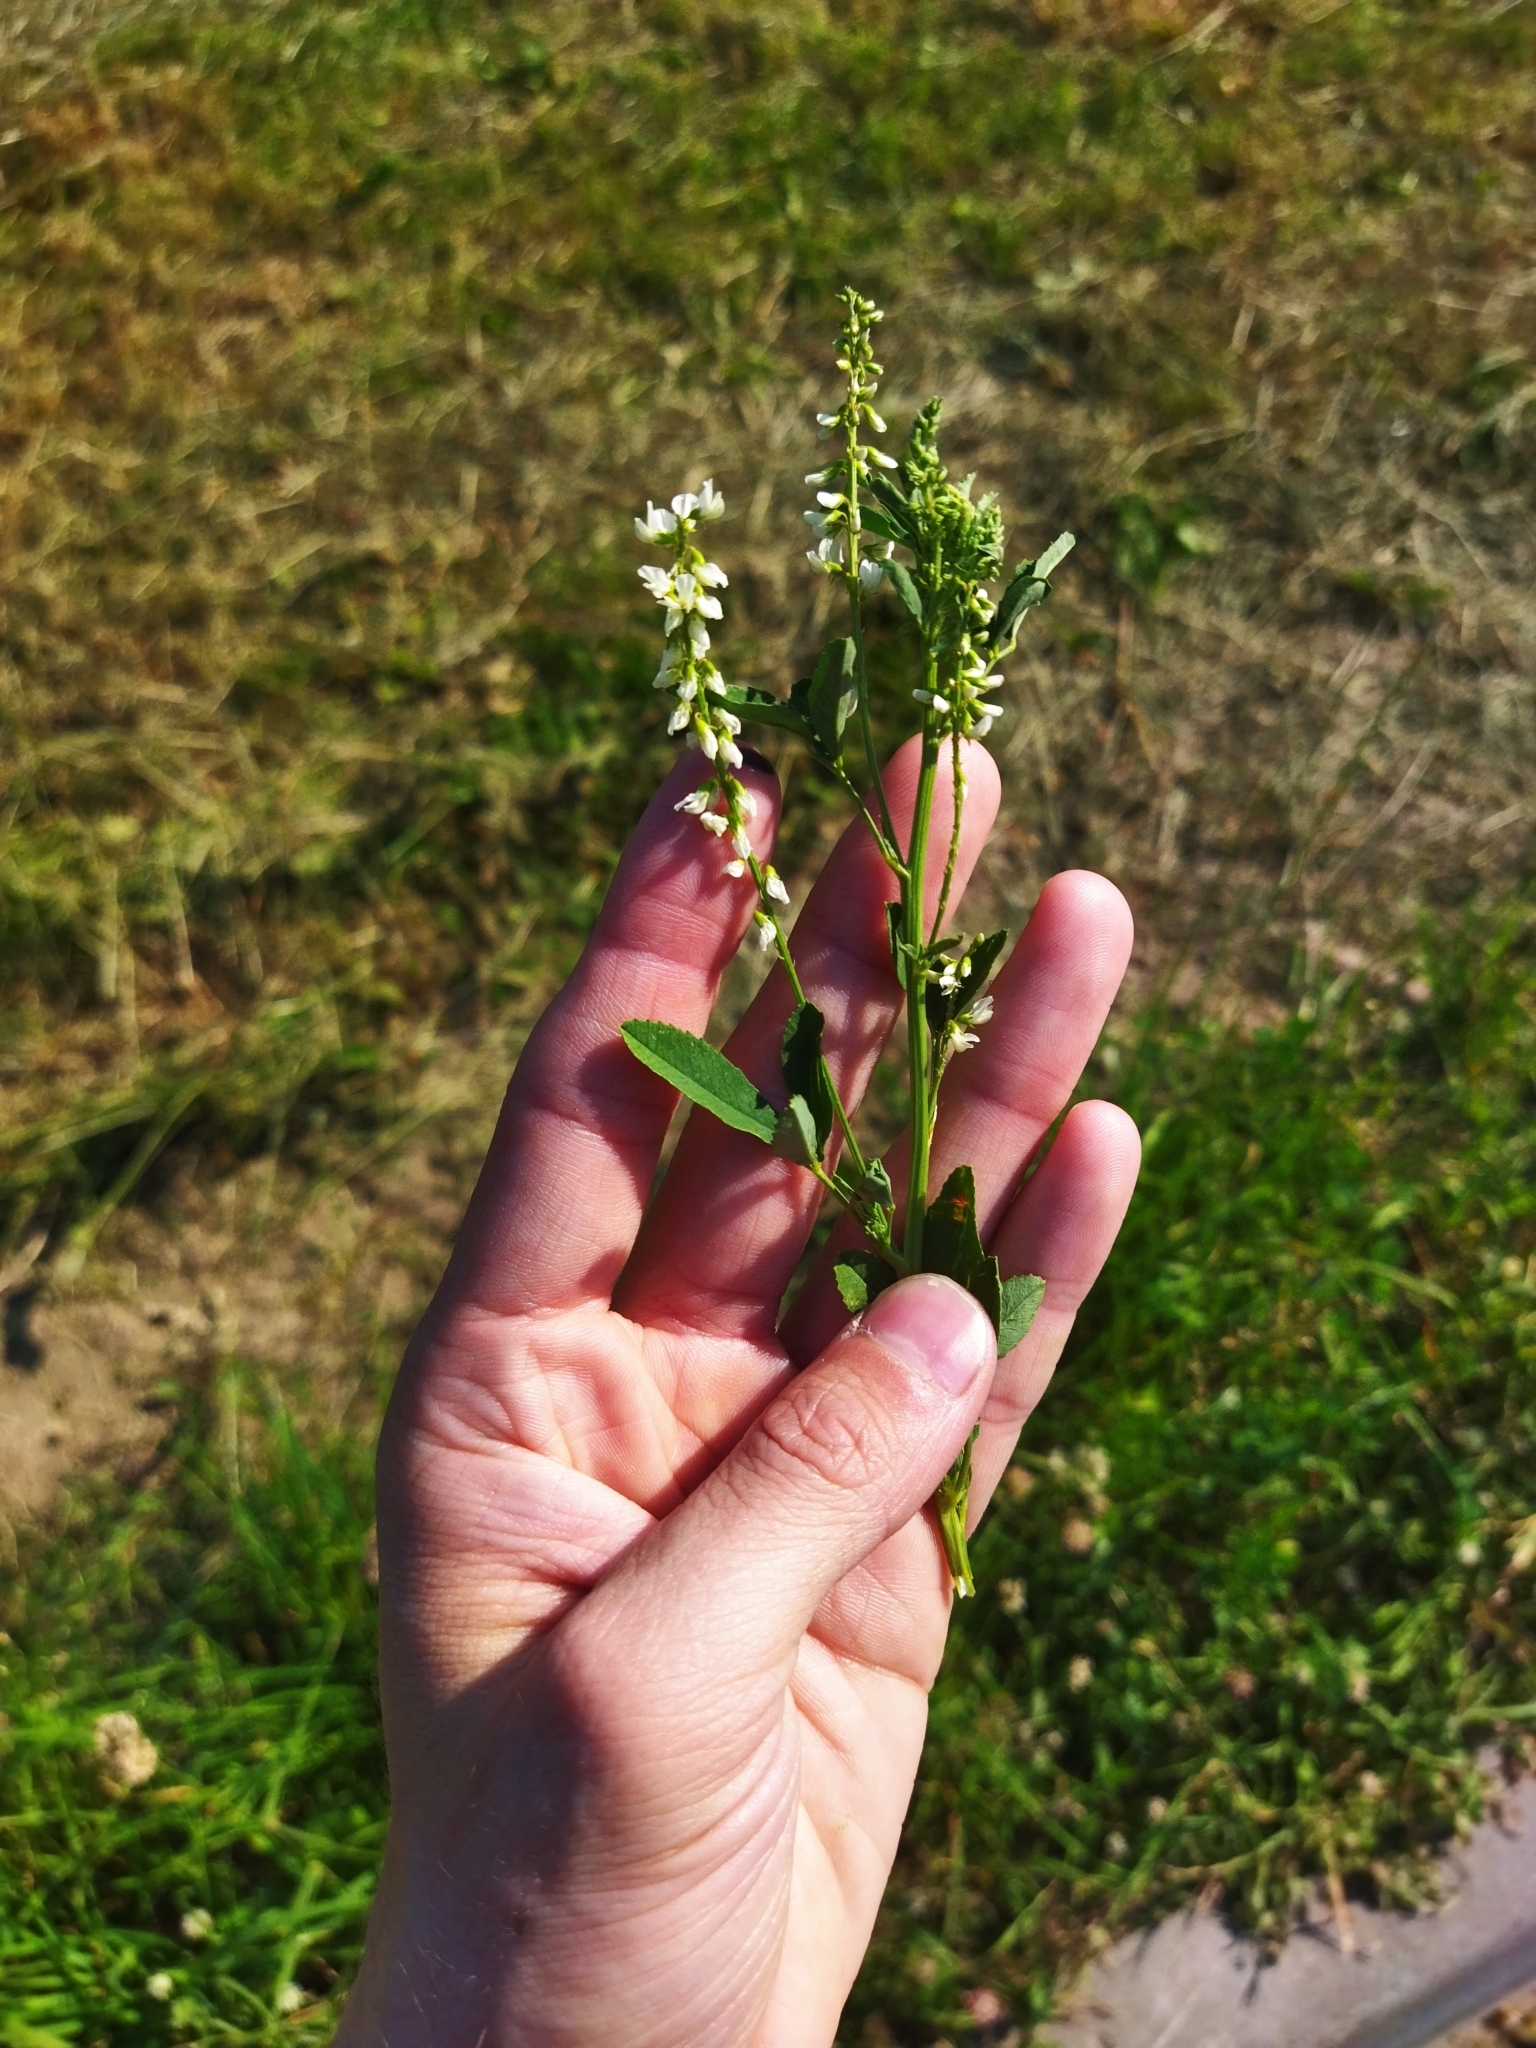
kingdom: Plantae
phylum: Tracheophyta
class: Magnoliopsida
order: Fabales
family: Fabaceae
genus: Melilotus
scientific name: Melilotus albus
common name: White melilot
